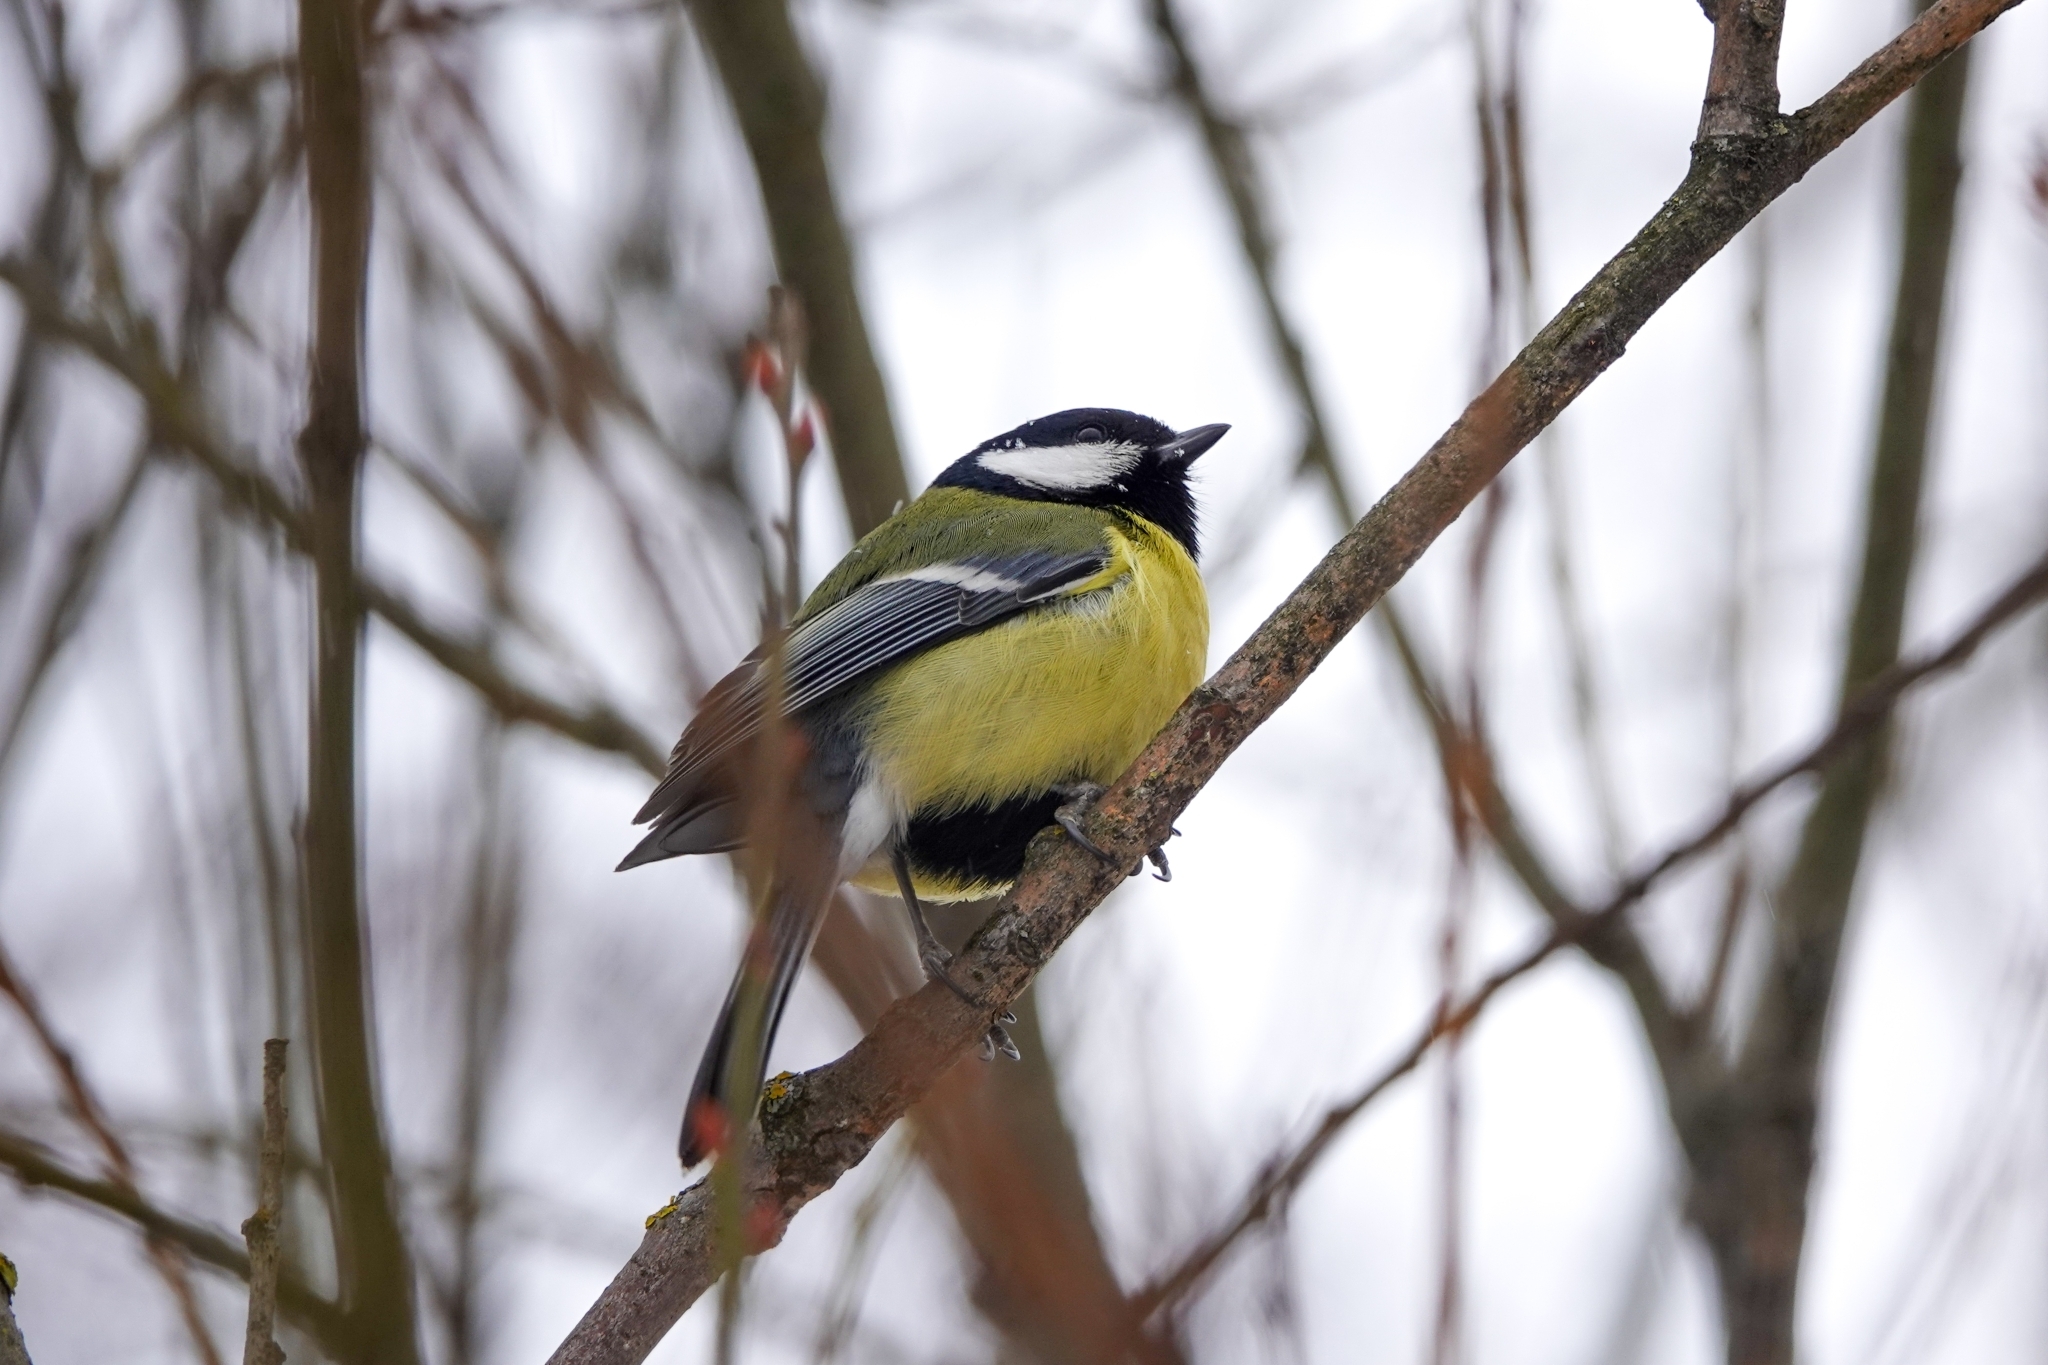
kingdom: Animalia
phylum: Chordata
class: Aves
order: Passeriformes
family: Paridae
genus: Parus
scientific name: Parus major
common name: Great tit
